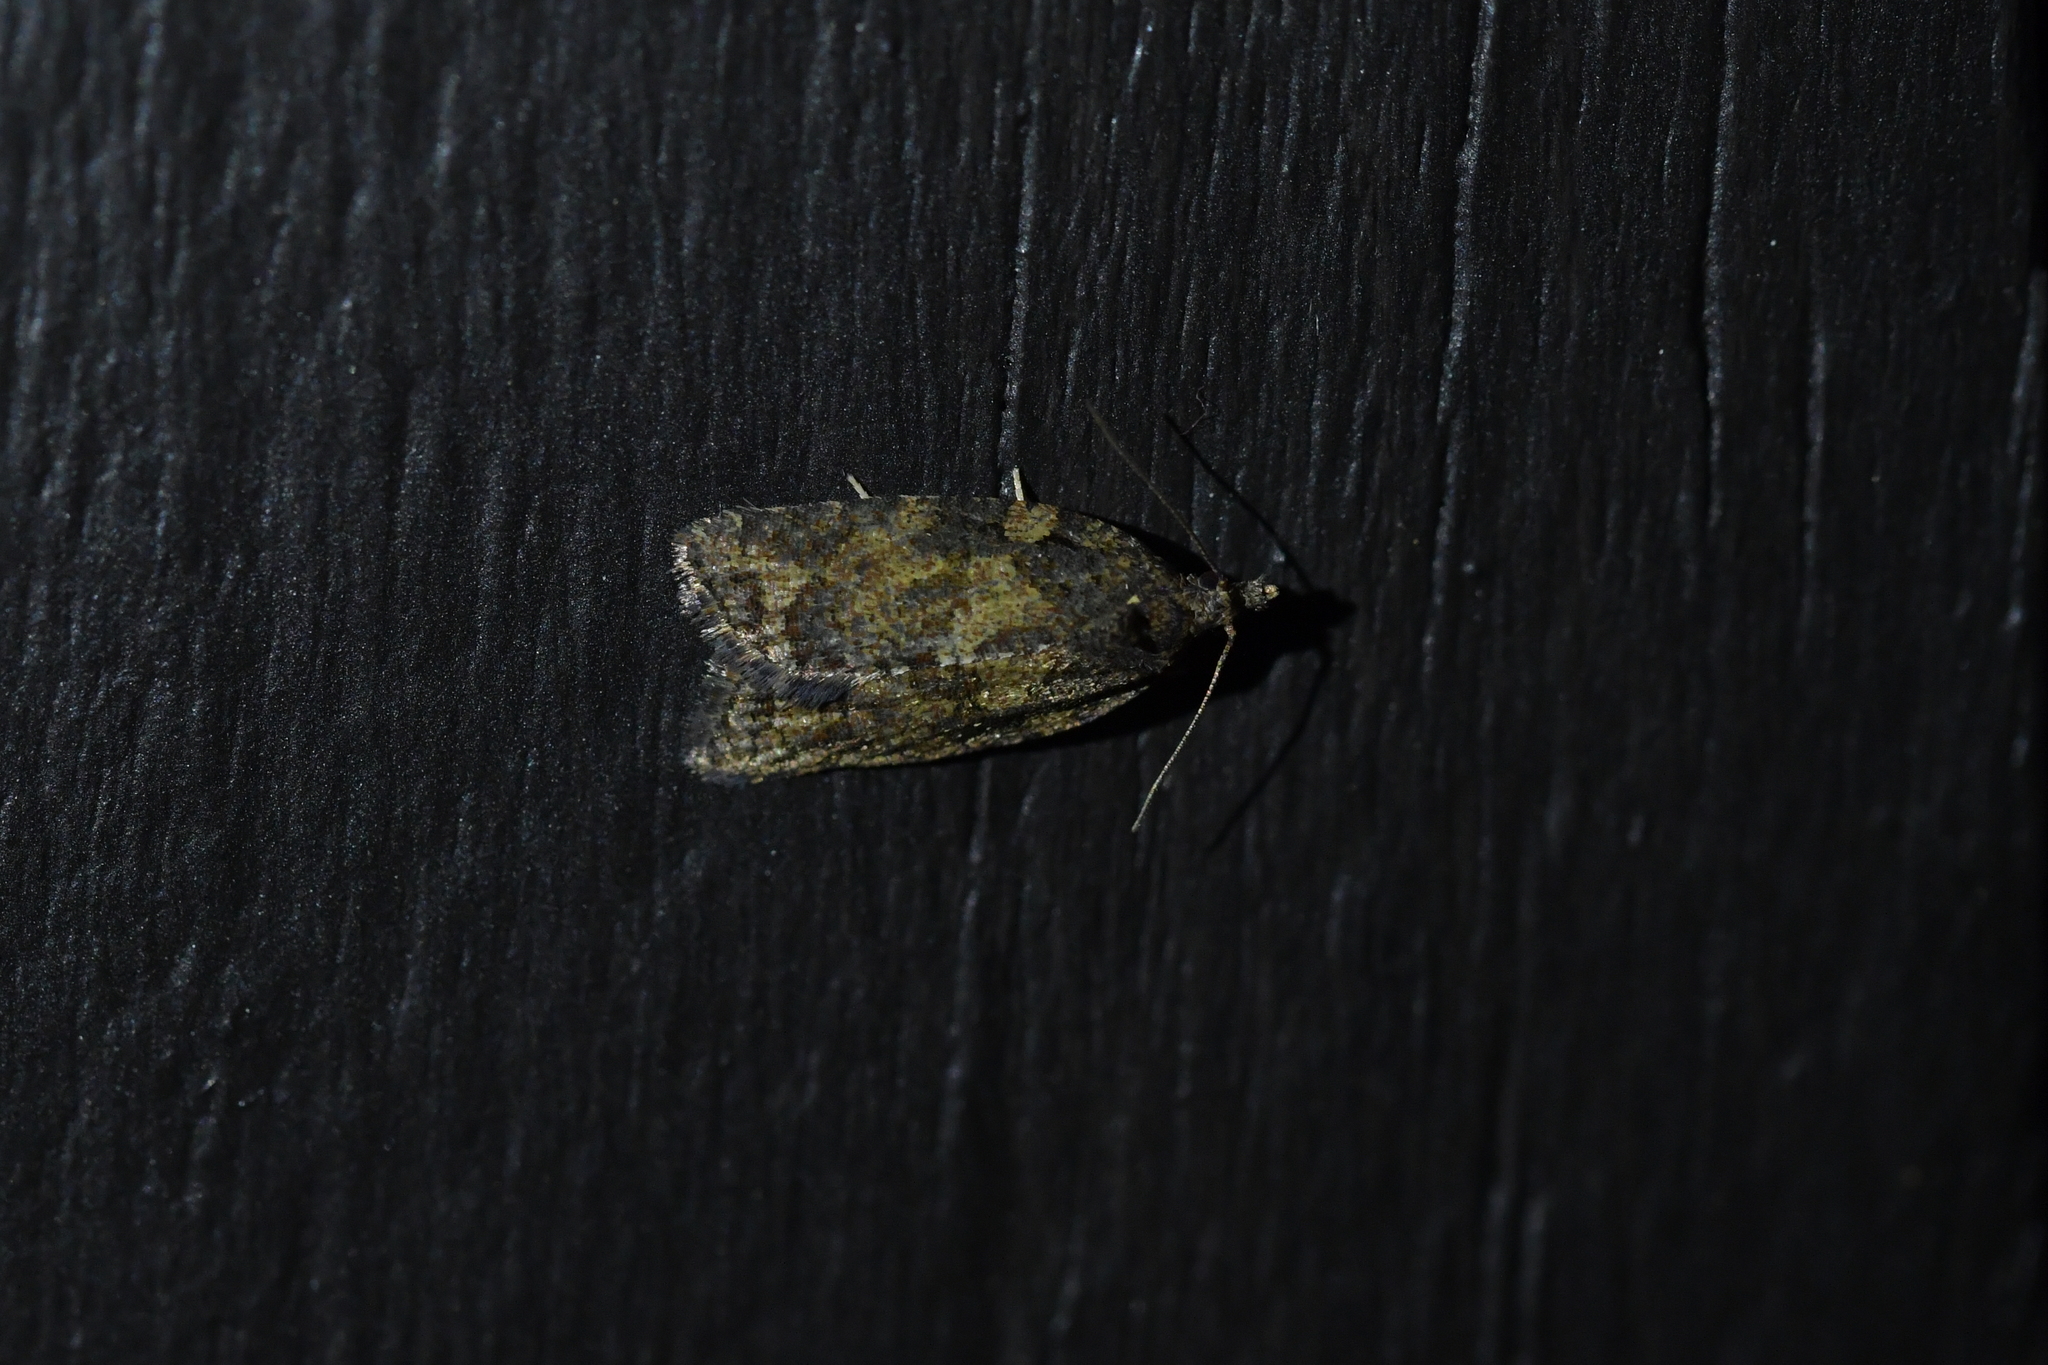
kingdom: Animalia
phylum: Arthropoda
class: Insecta
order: Lepidoptera
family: Tortricidae
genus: Capua
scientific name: Capua intractana
